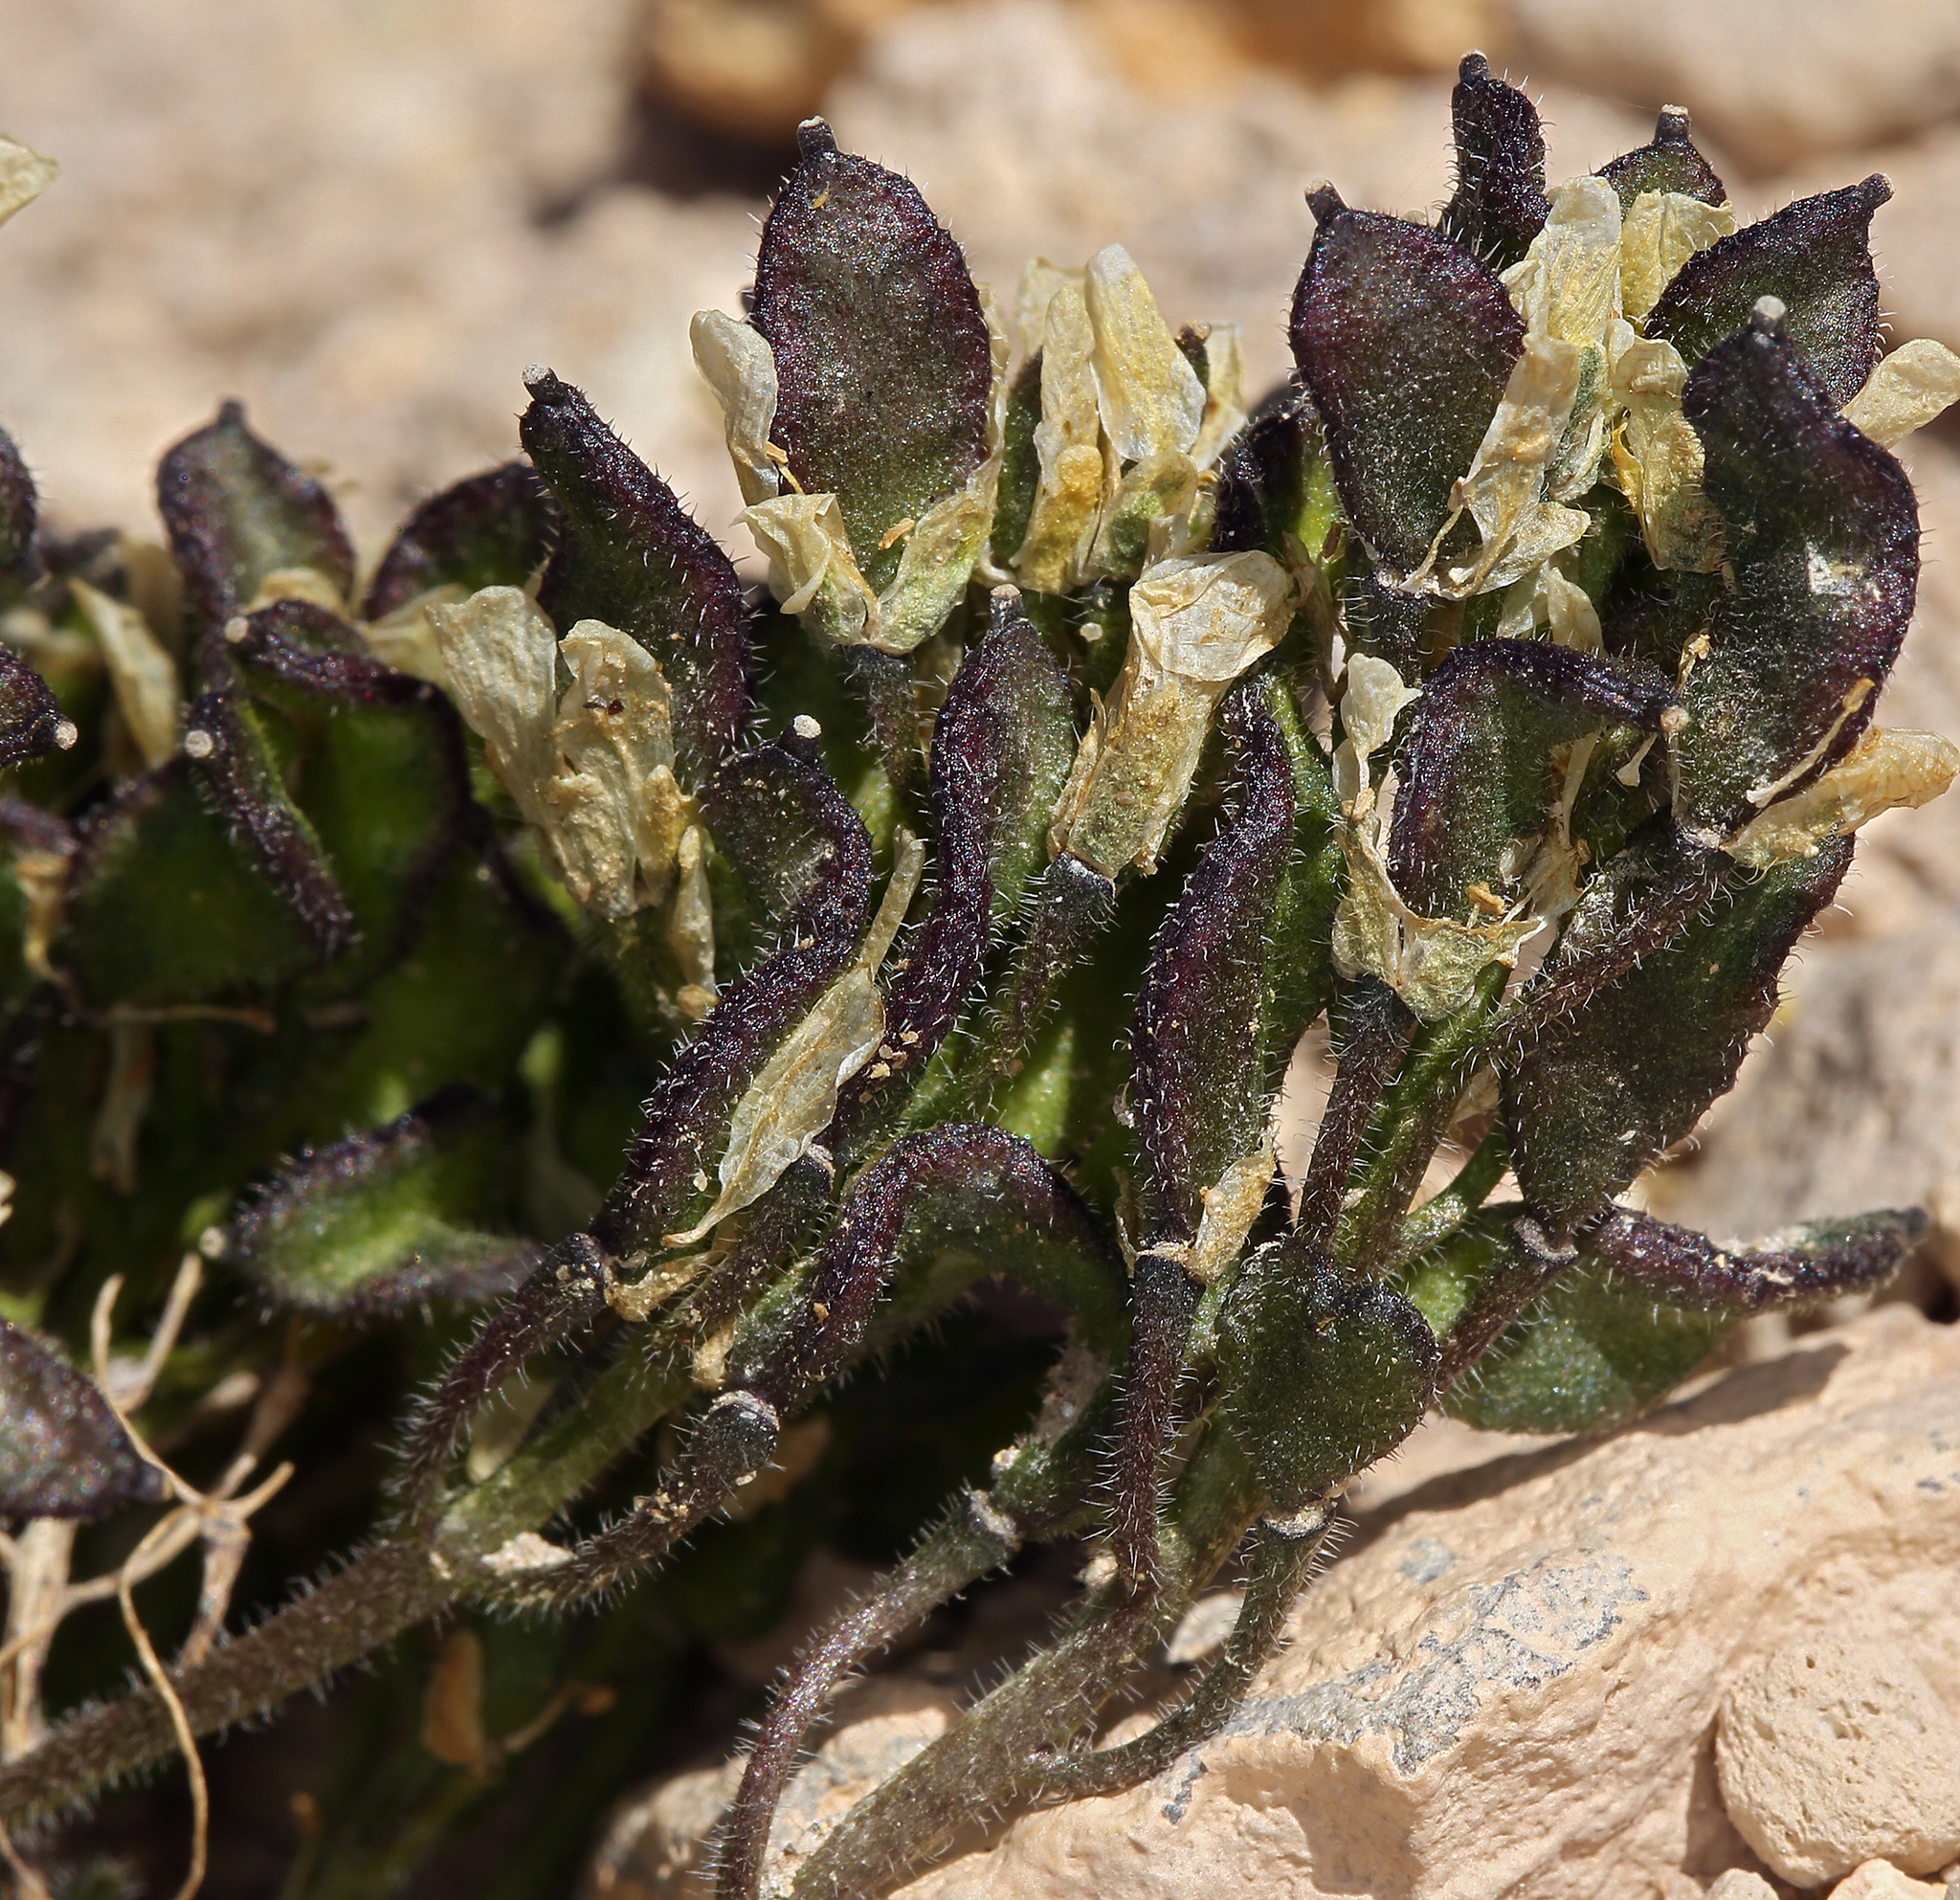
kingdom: Plantae
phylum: Tracheophyta
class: Magnoliopsida
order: Brassicales
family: Brassicaceae
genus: Draba
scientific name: Draba lemmonii
